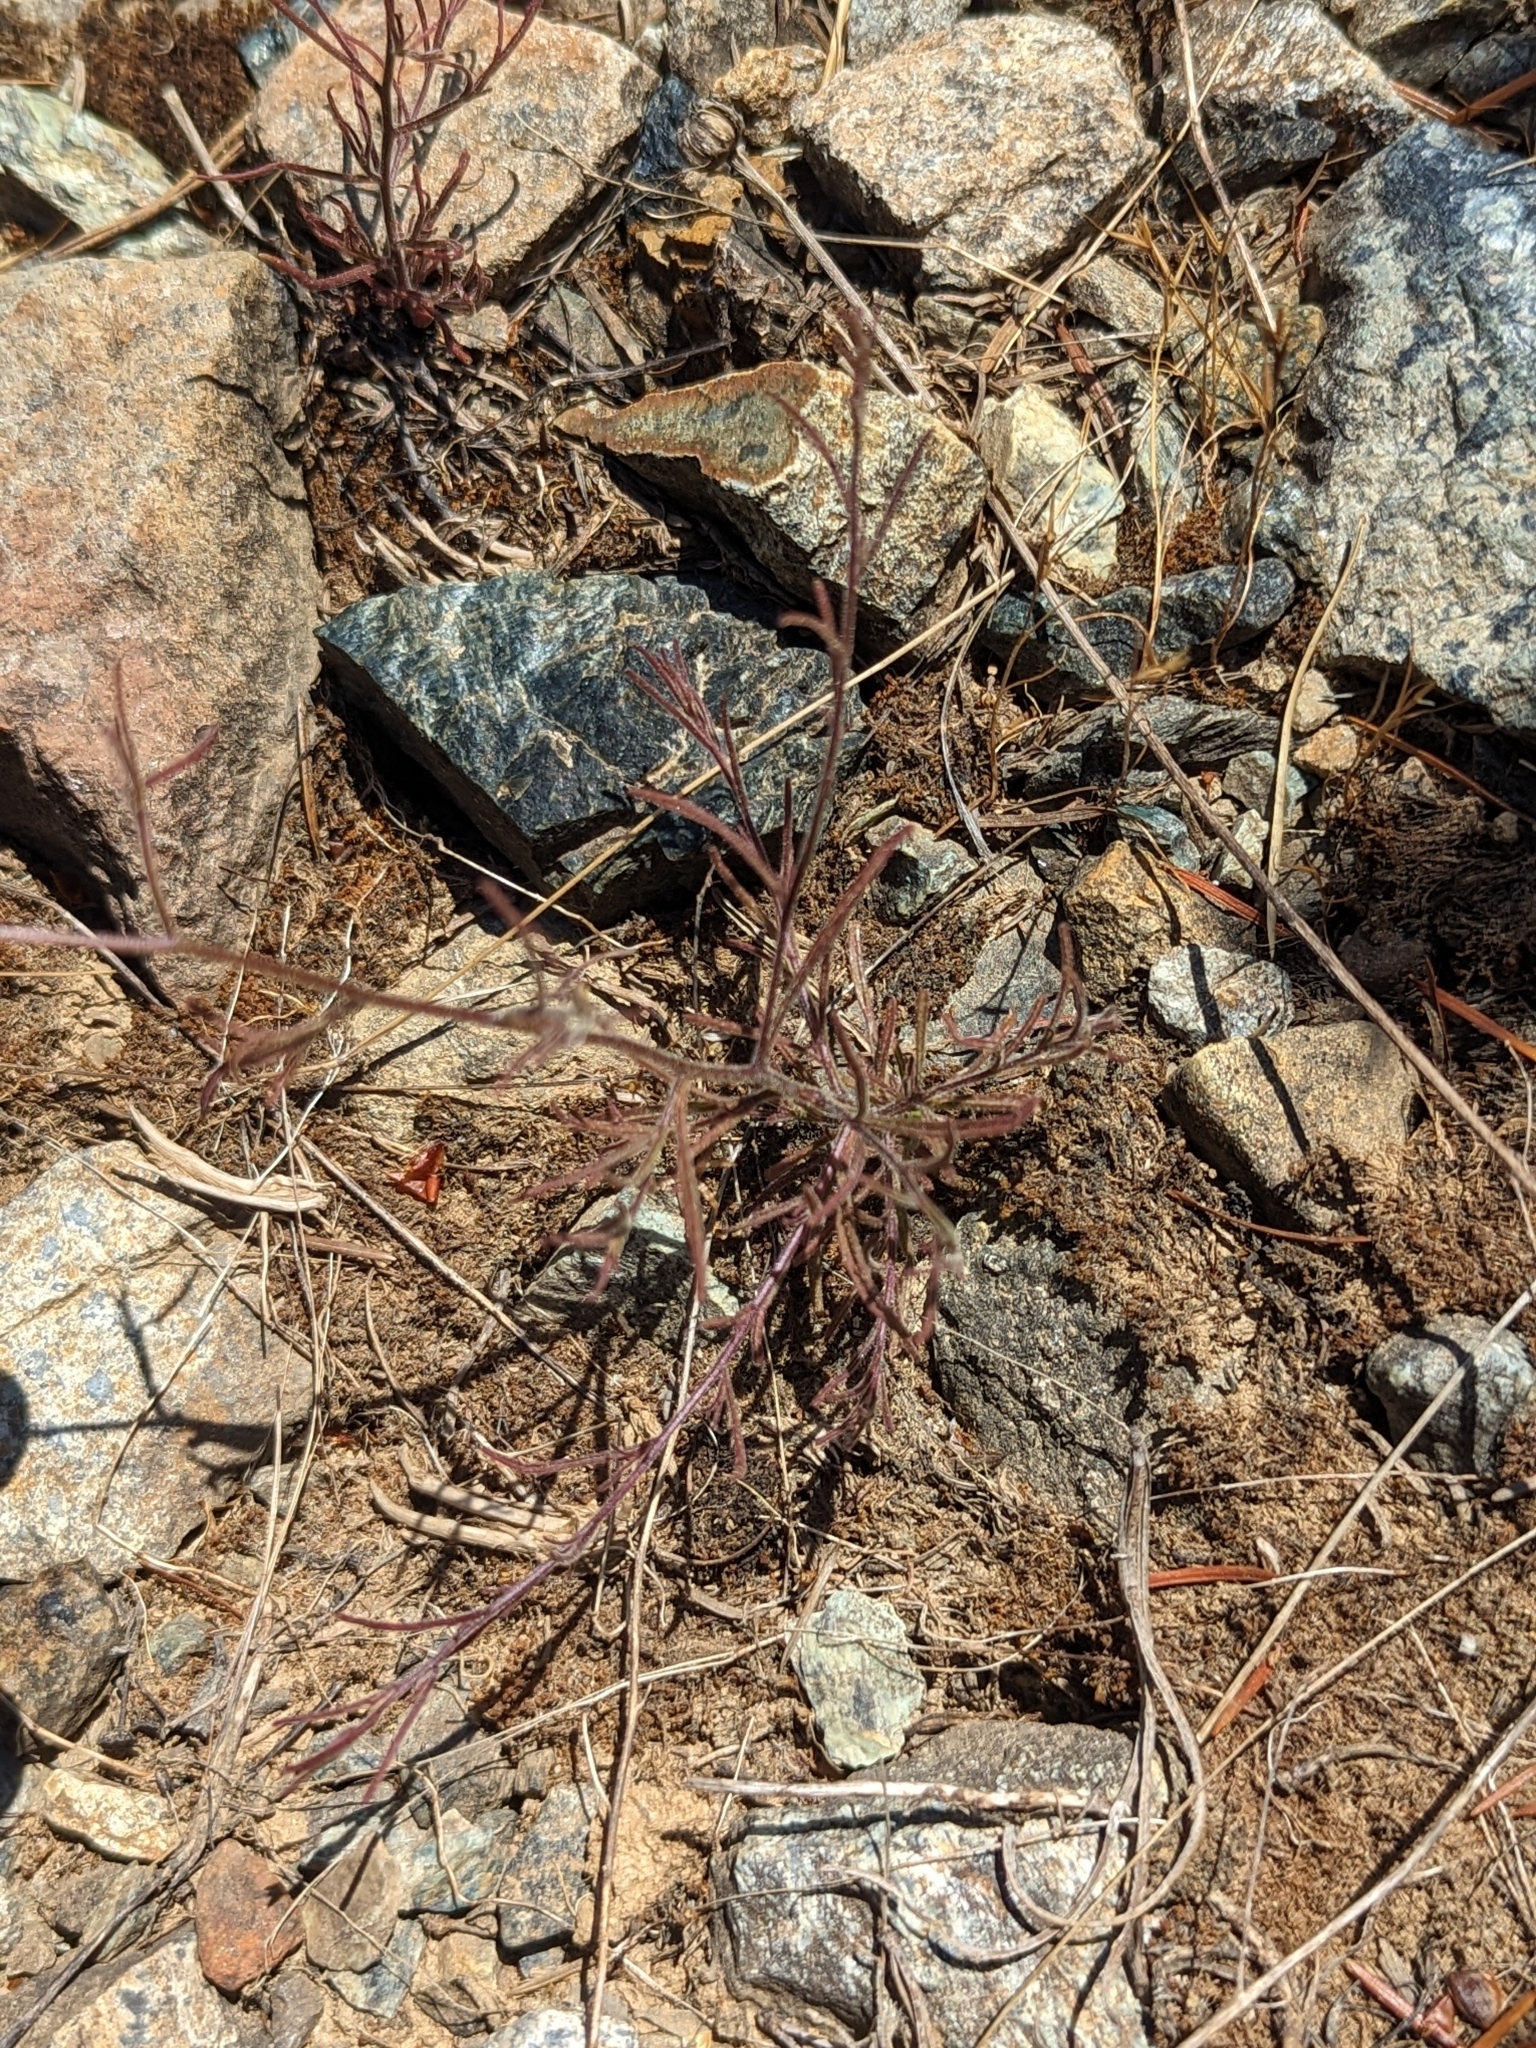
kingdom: Plantae
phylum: Tracheophyta
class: Magnoliopsida
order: Lamiales
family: Orobanchaceae
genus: Cordylanthus
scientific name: Cordylanthus tenuis
